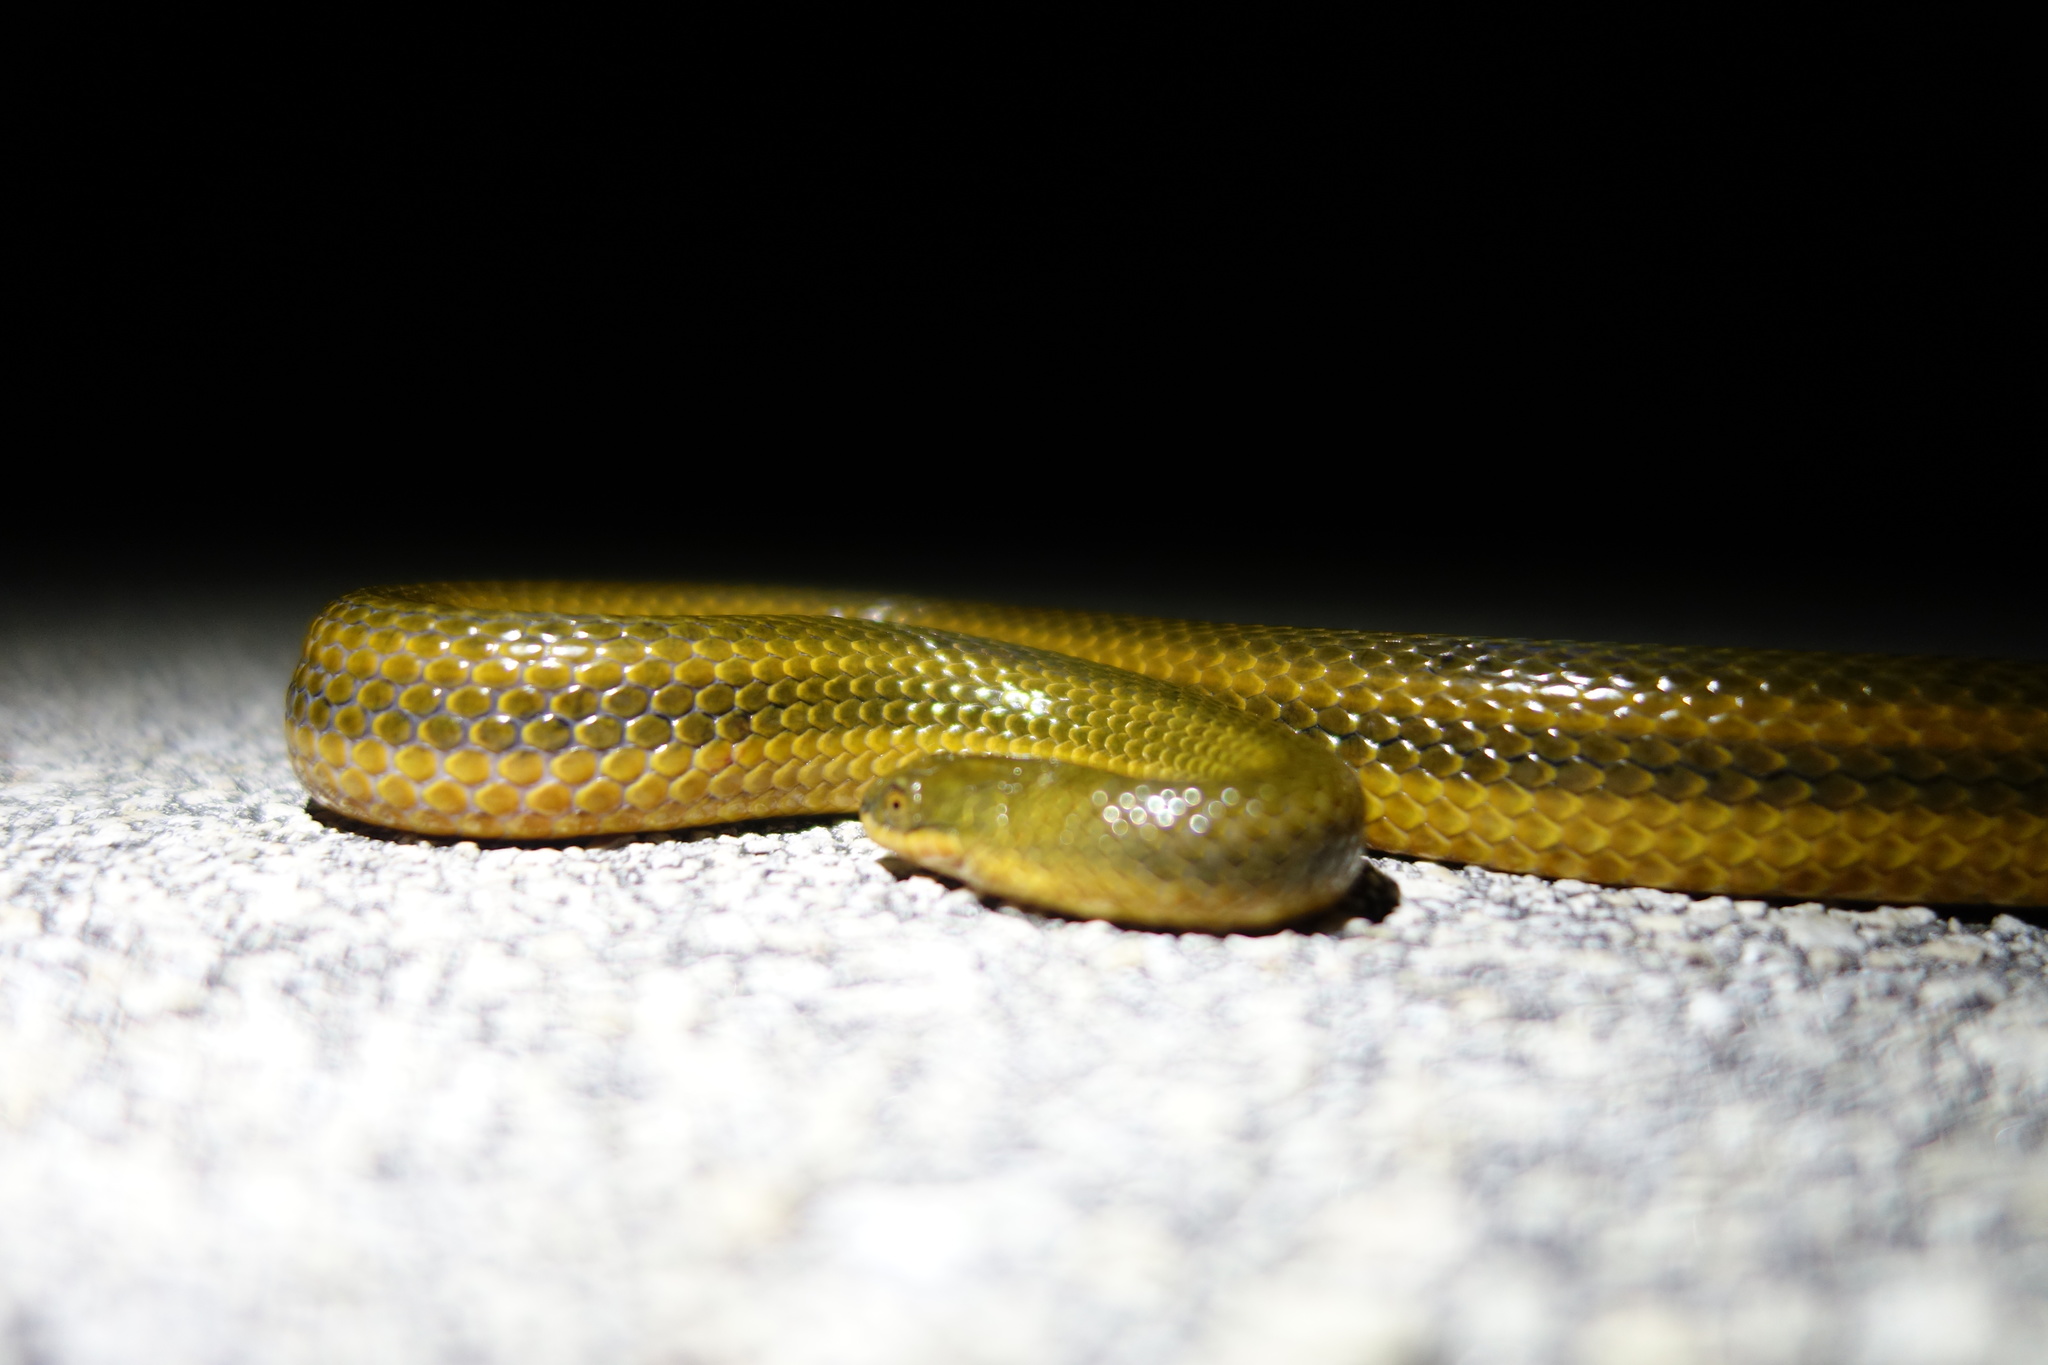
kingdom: Animalia
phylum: Chordata
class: Squamata
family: Colubridae
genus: Liodytes
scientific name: Liodytes alleni
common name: Striped crayfish snake
